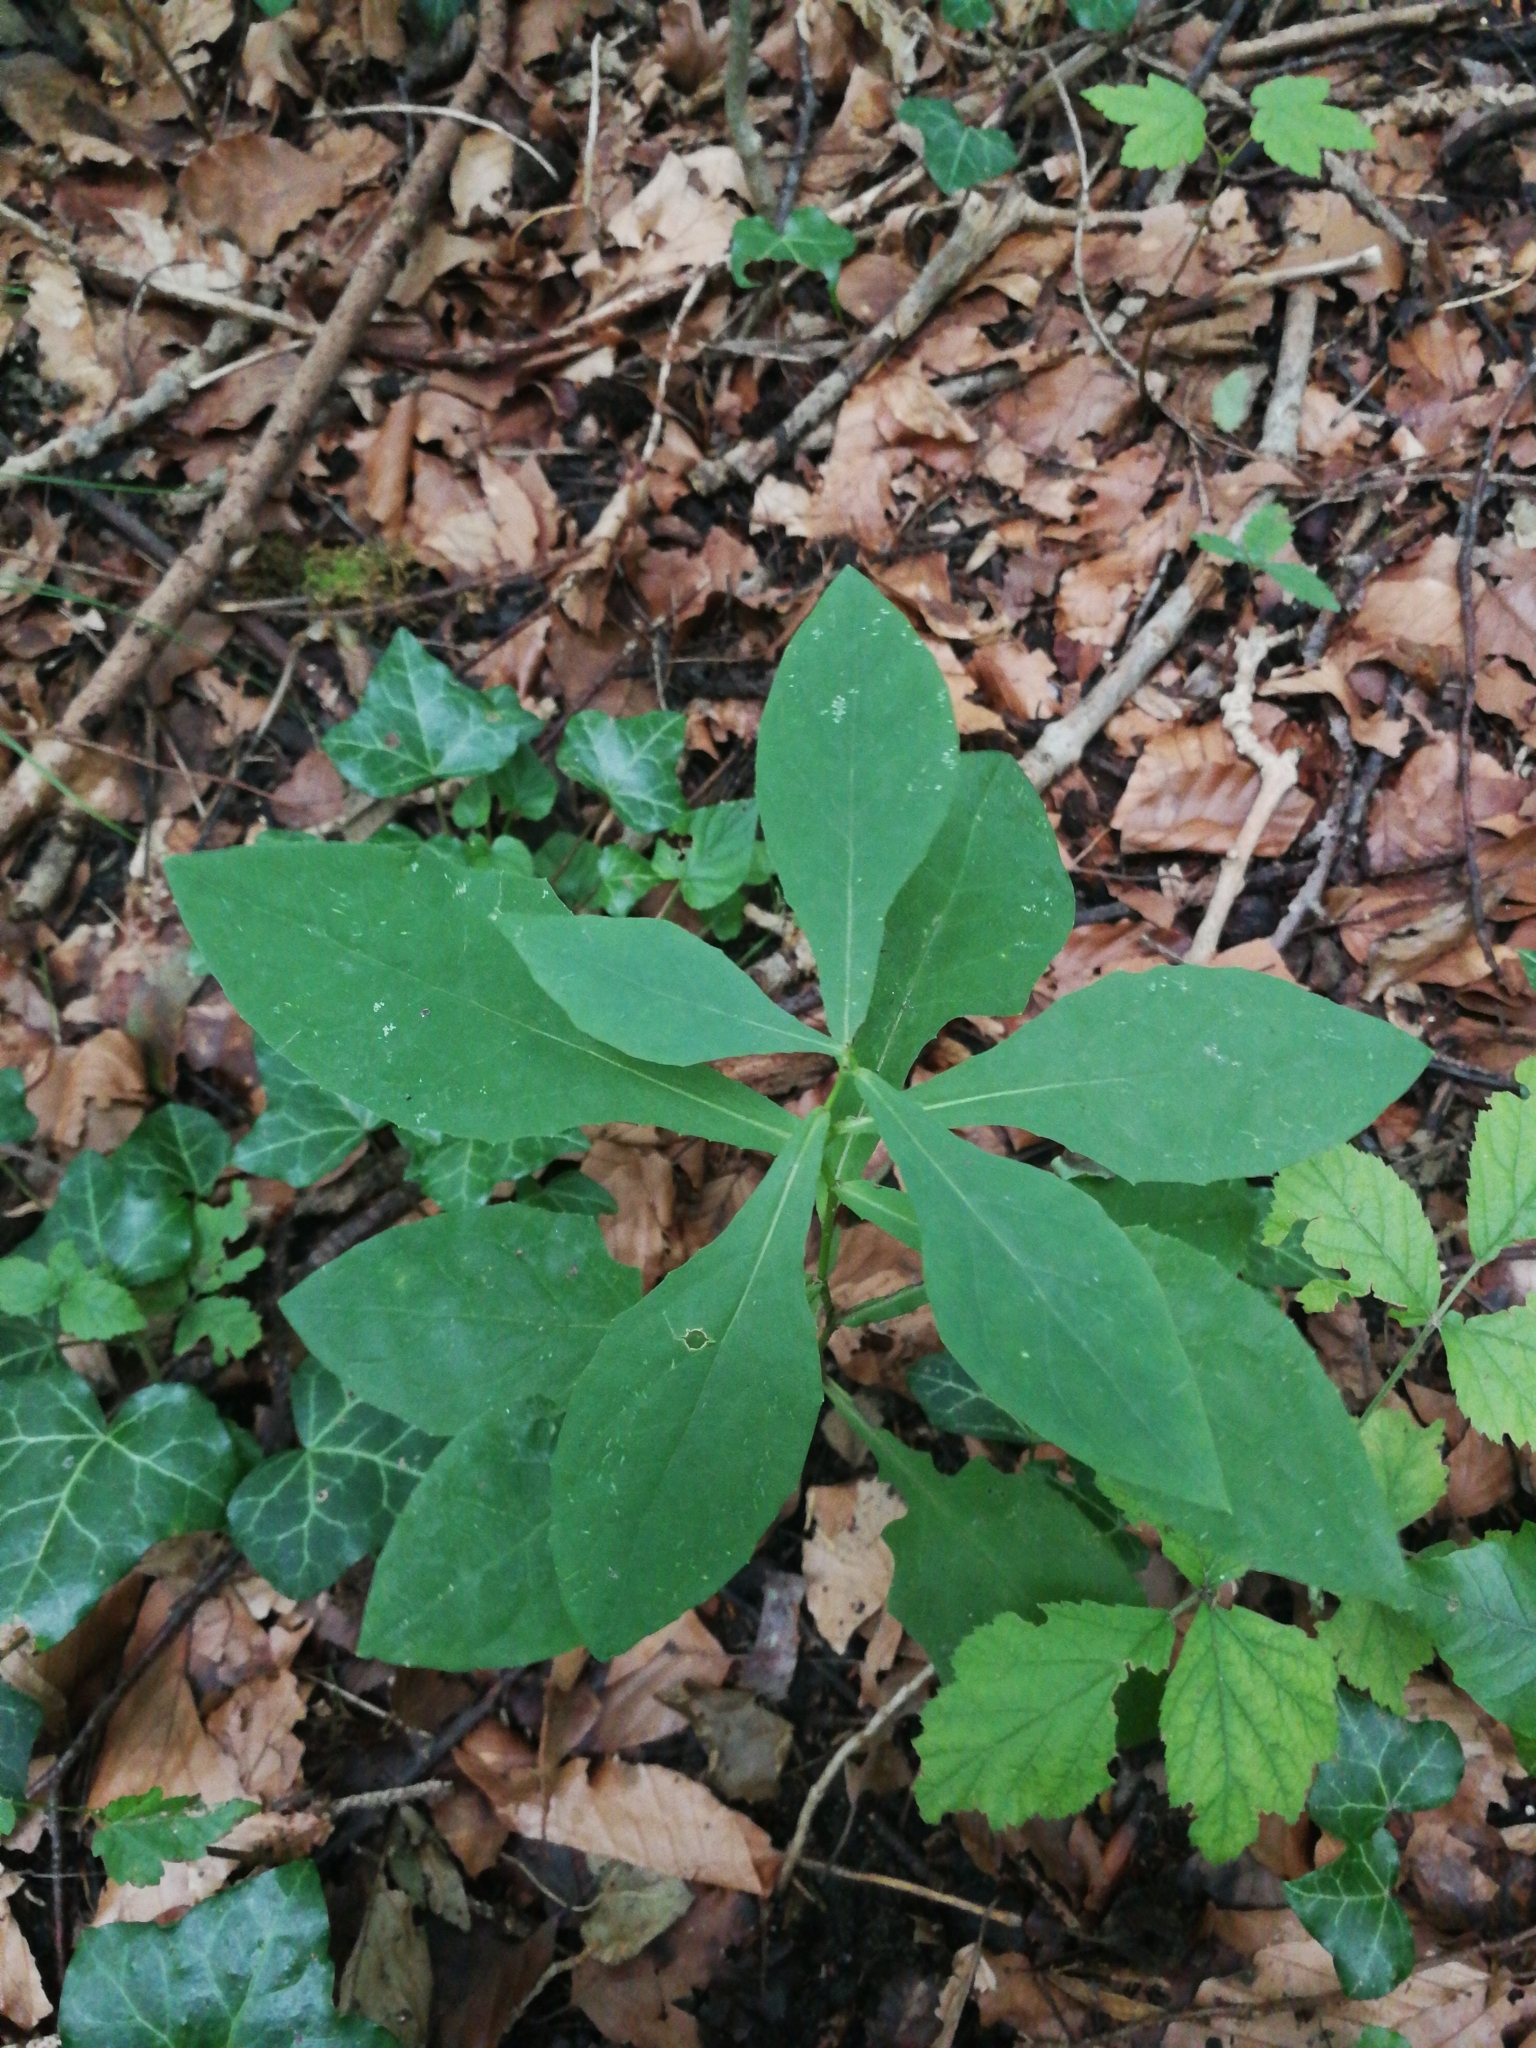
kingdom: Plantae
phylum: Tracheophyta
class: Magnoliopsida
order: Asterales
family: Asteraceae
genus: Prenanthes
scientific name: Prenanthes purpurea
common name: Purple lettuce
